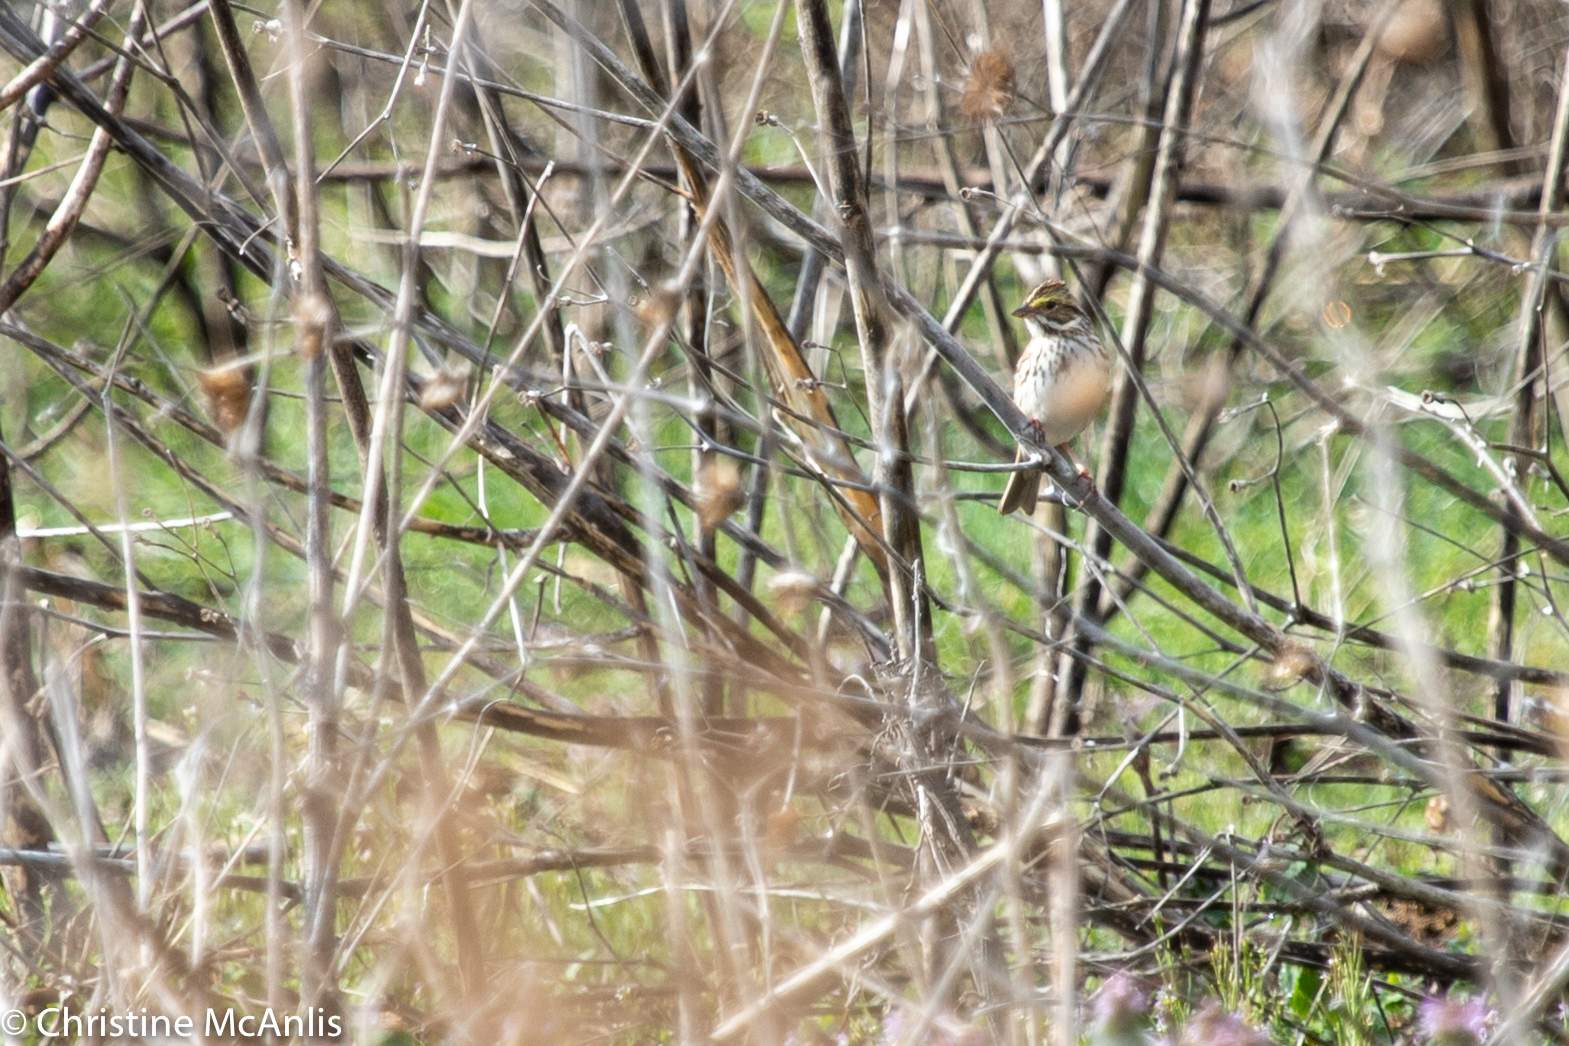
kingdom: Animalia
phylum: Chordata
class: Aves
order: Passeriformes
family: Passerellidae
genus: Passerculus
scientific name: Passerculus sandwichensis
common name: Savannah sparrow
